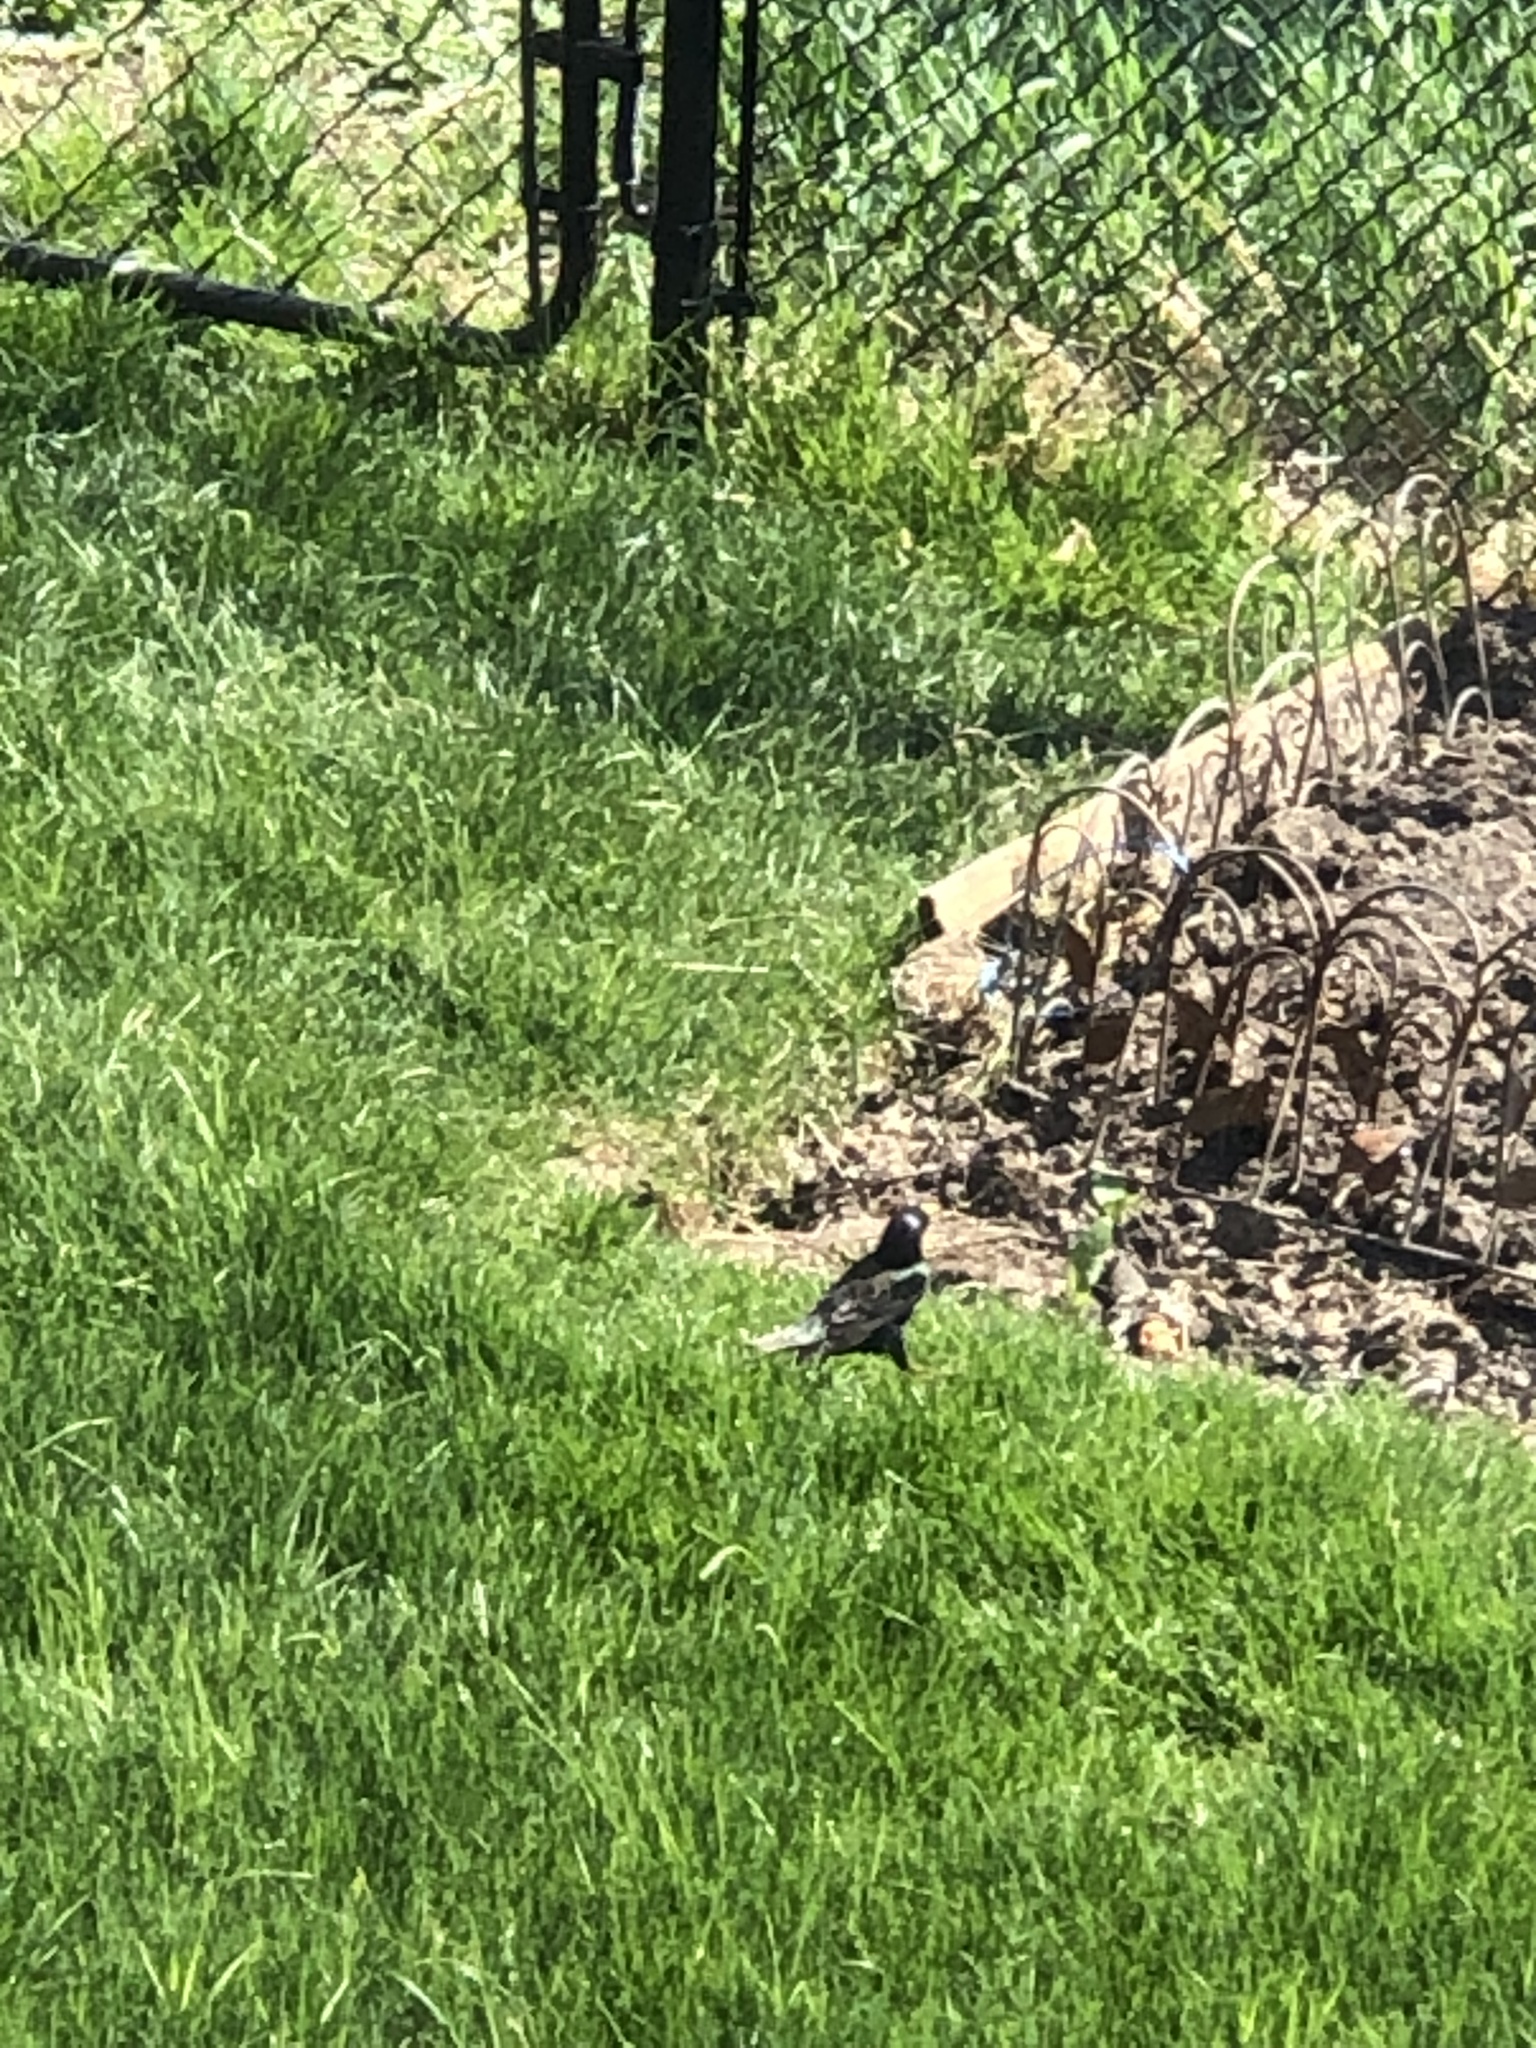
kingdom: Animalia
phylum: Chordata
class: Aves
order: Passeriformes
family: Sturnidae
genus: Sturnus
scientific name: Sturnus vulgaris
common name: Common starling
